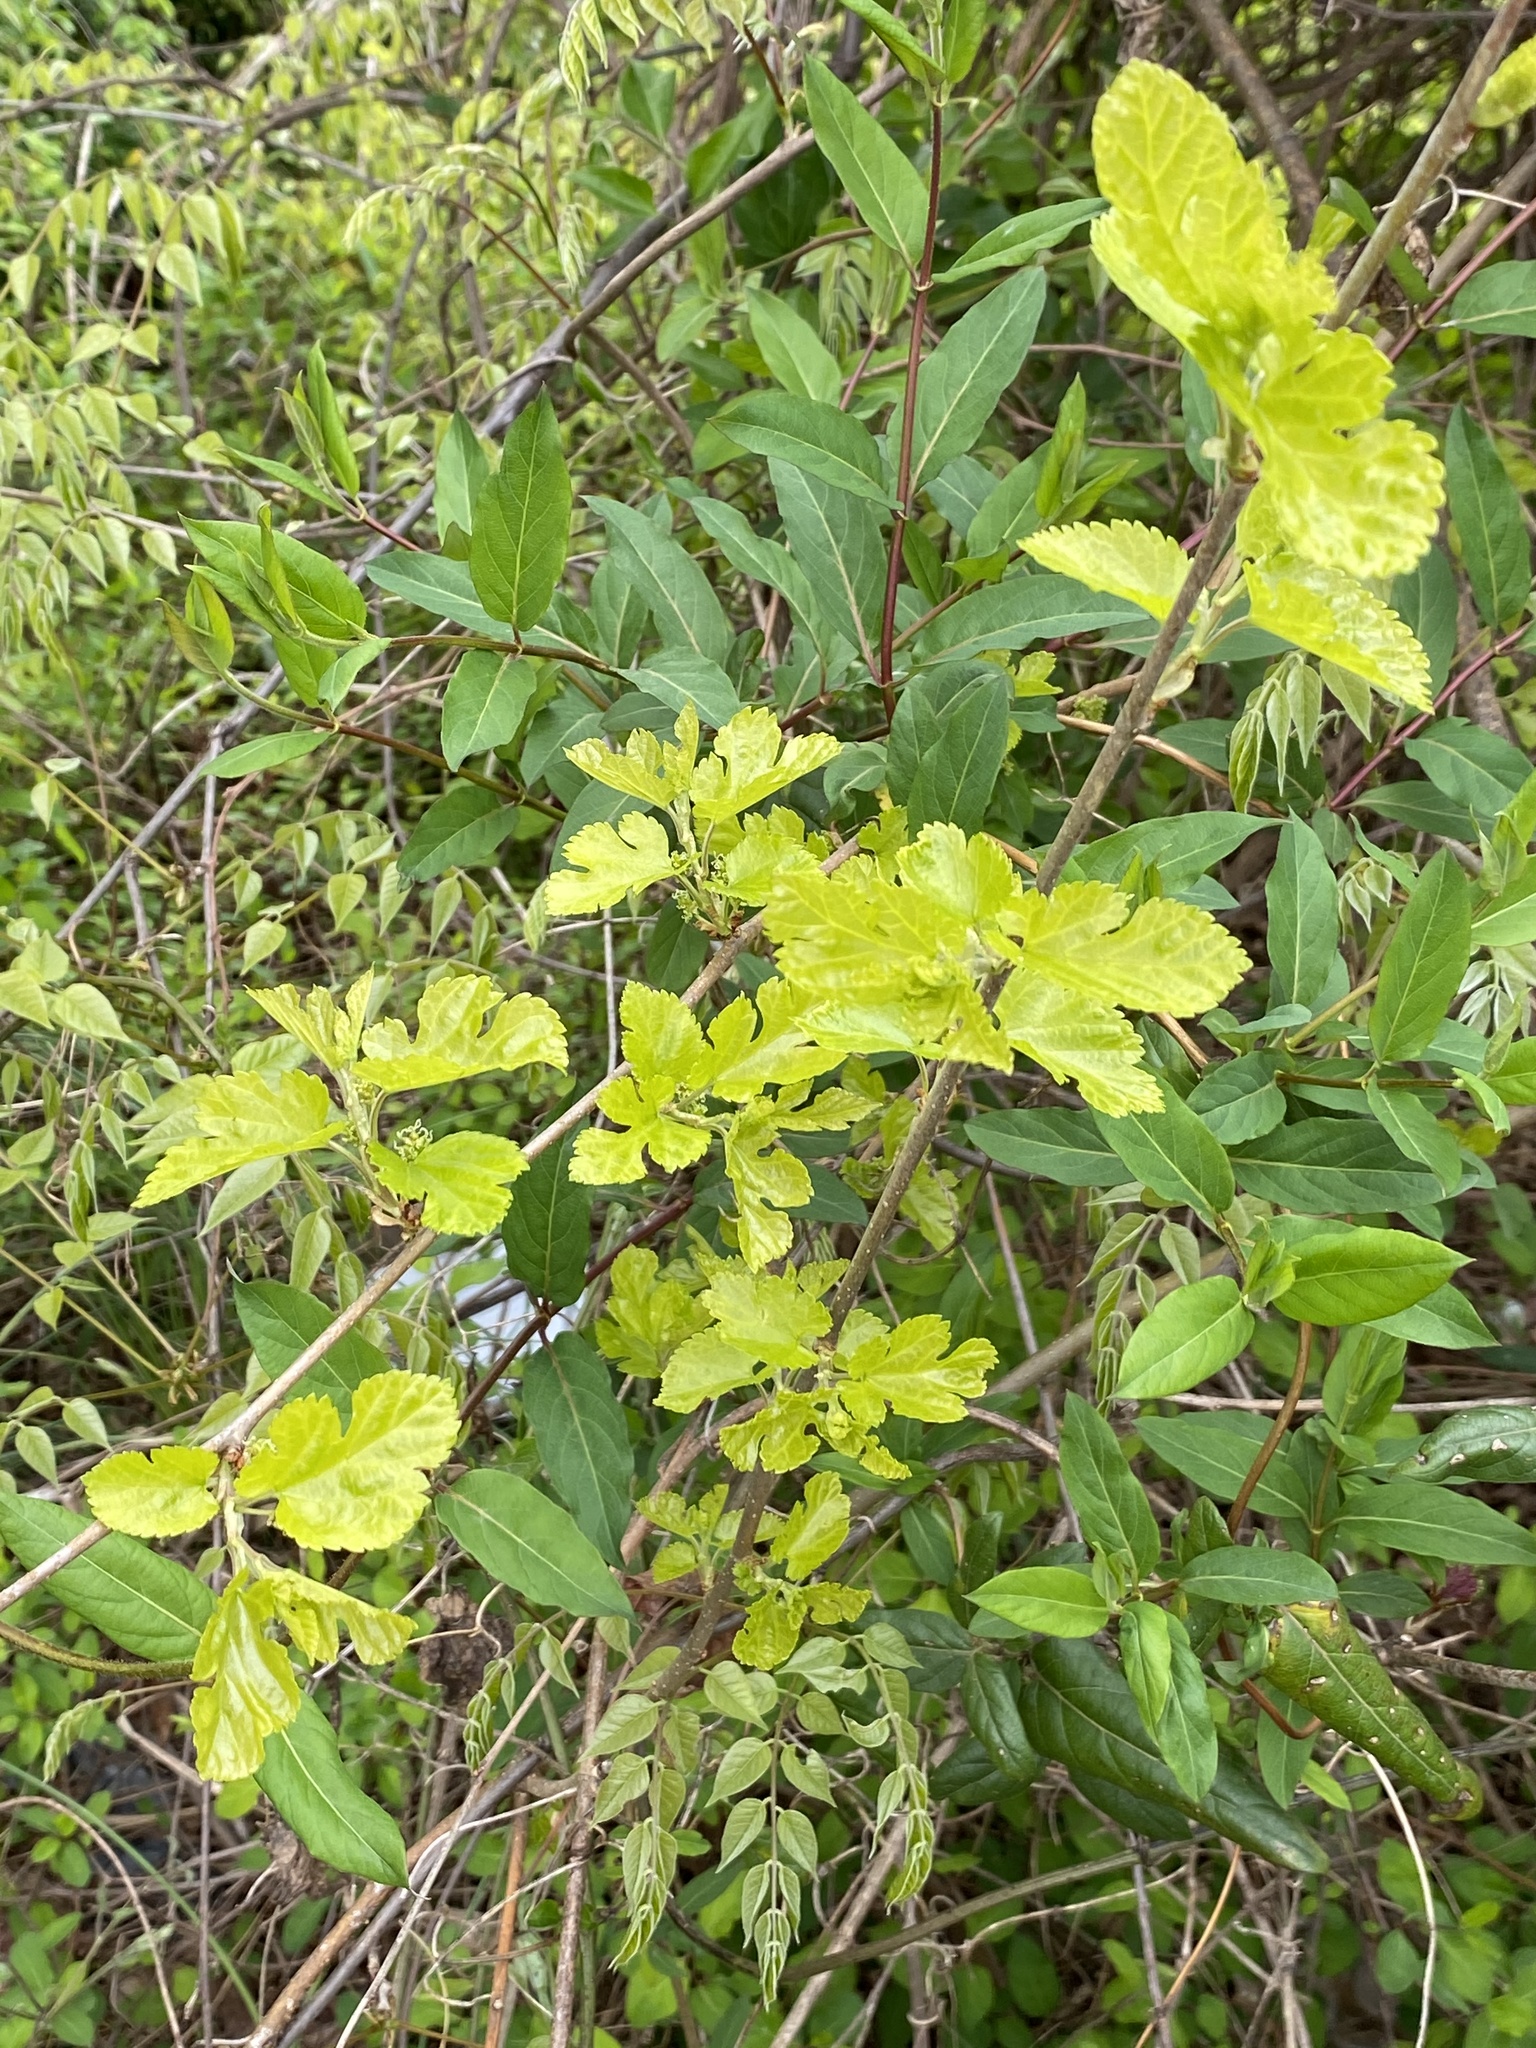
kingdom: Plantae
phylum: Tracheophyta
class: Magnoliopsida
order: Rosales
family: Moraceae
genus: Morus
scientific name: Morus alba
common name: White mulberry
